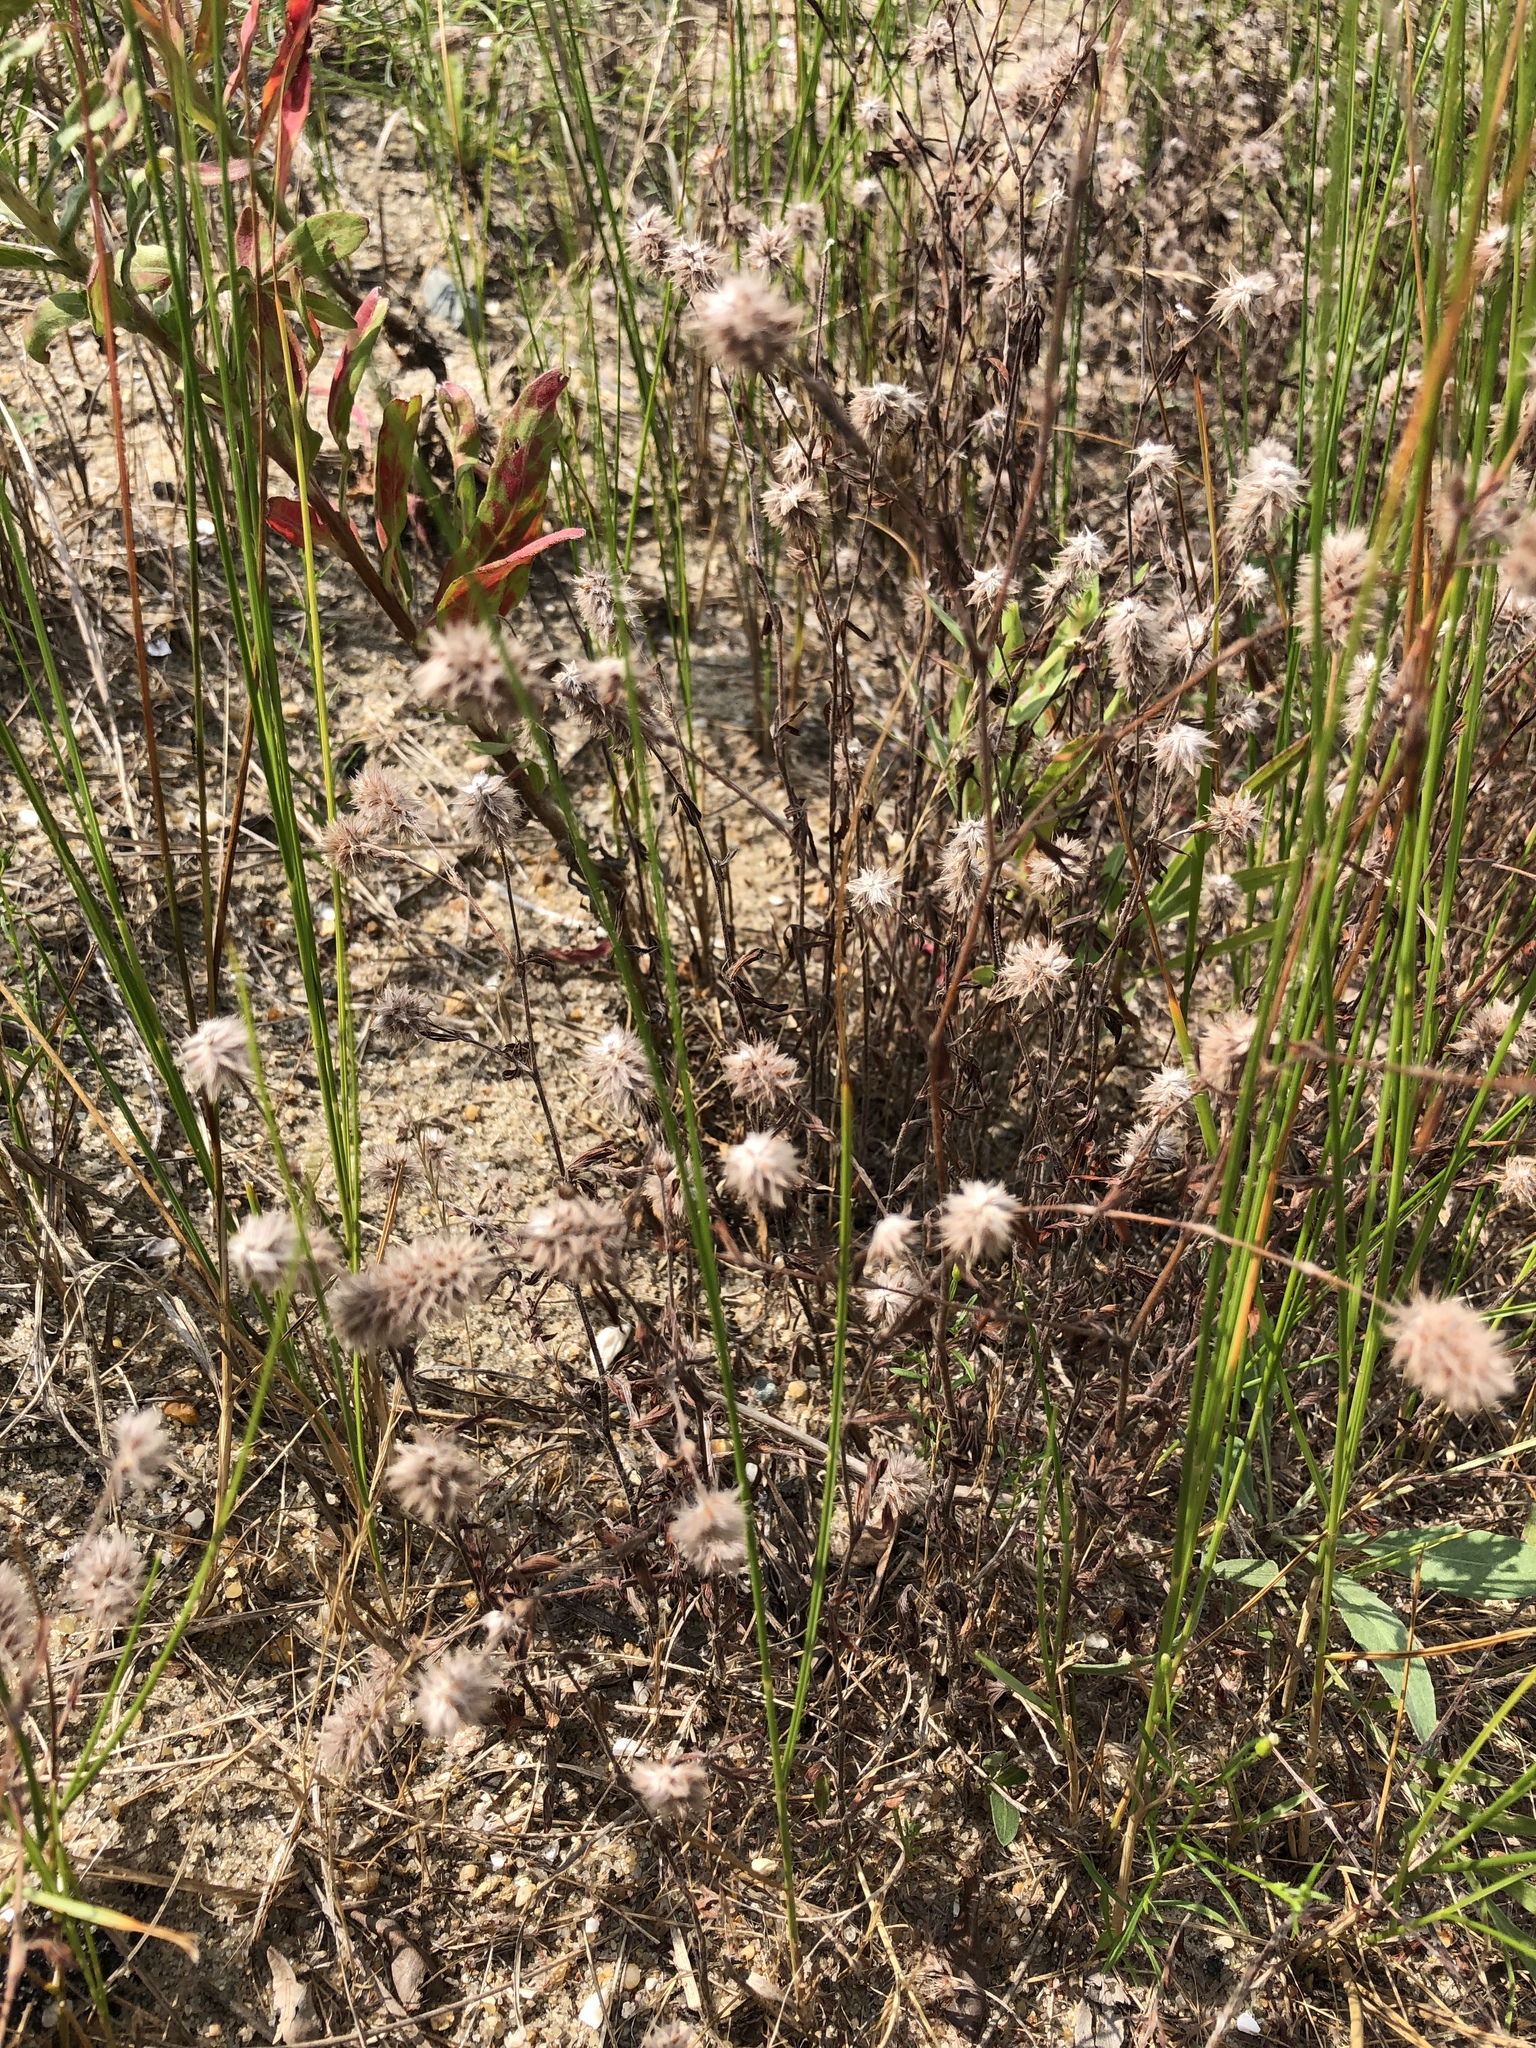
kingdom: Plantae
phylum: Tracheophyta
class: Magnoliopsida
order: Fabales
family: Fabaceae
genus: Trifolium
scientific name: Trifolium arvense
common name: Hare's-foot clover
